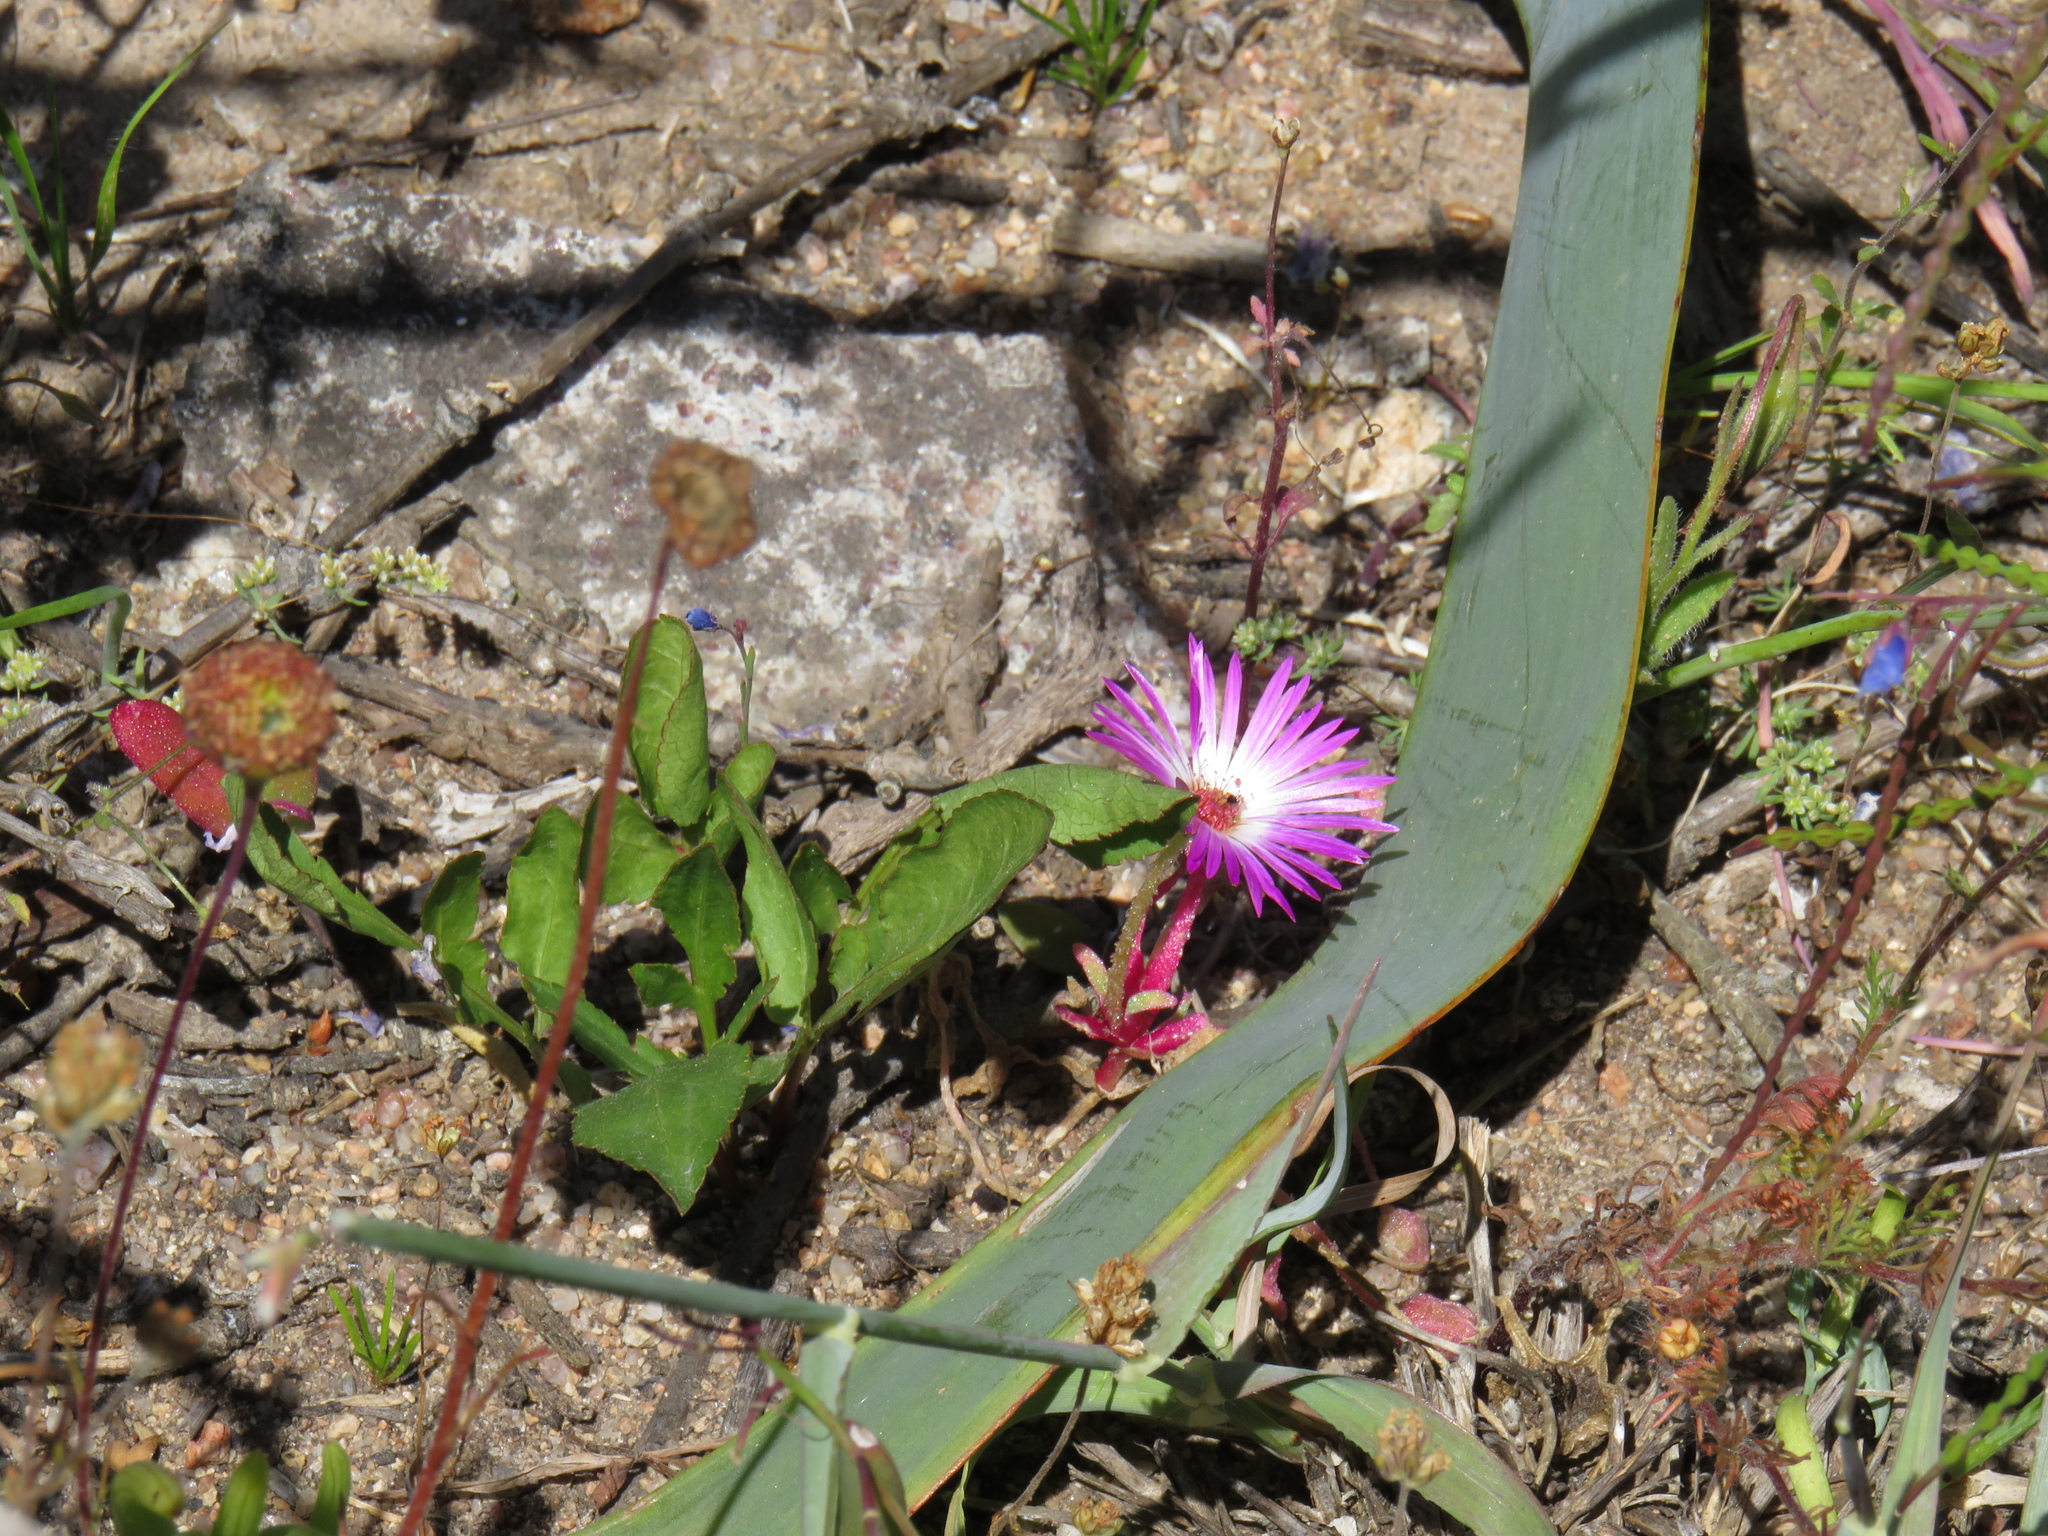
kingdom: Plantae
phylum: Tracheophyta
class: Magnoliopsida
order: Caryophyllales
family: Aizoaceae
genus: Cleretum
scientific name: Cleretum bellidiforme
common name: Livingstone daisy
